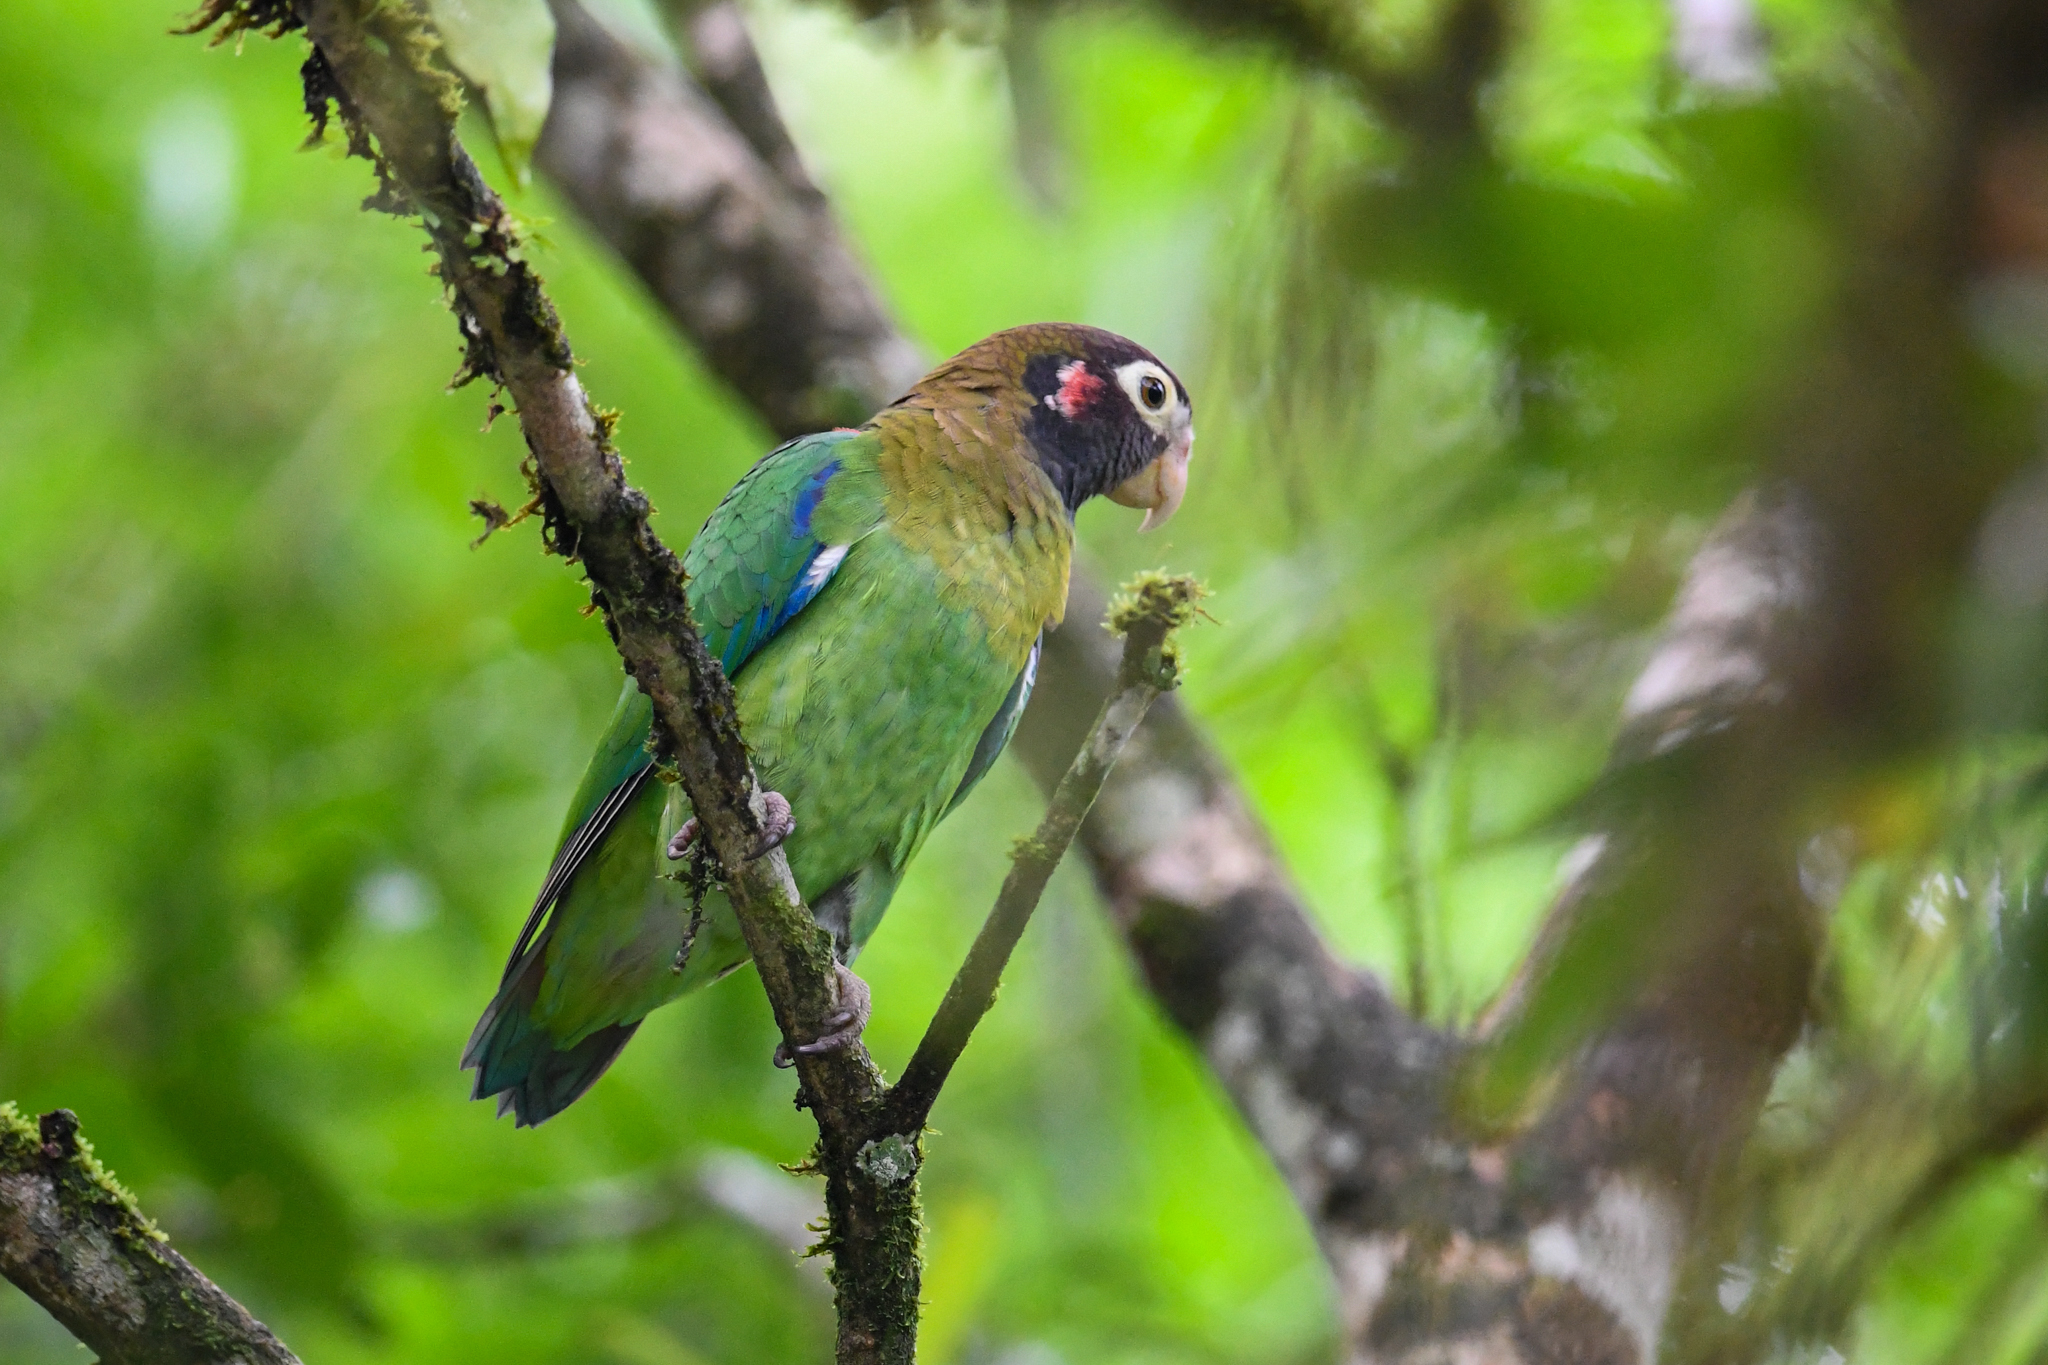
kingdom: Animalia
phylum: Chordata
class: Aves
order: Psittaciformes
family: Psittacidae
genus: Pionopsitta
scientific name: Pionopsitta haematotis
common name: Brown-hooded parrot
